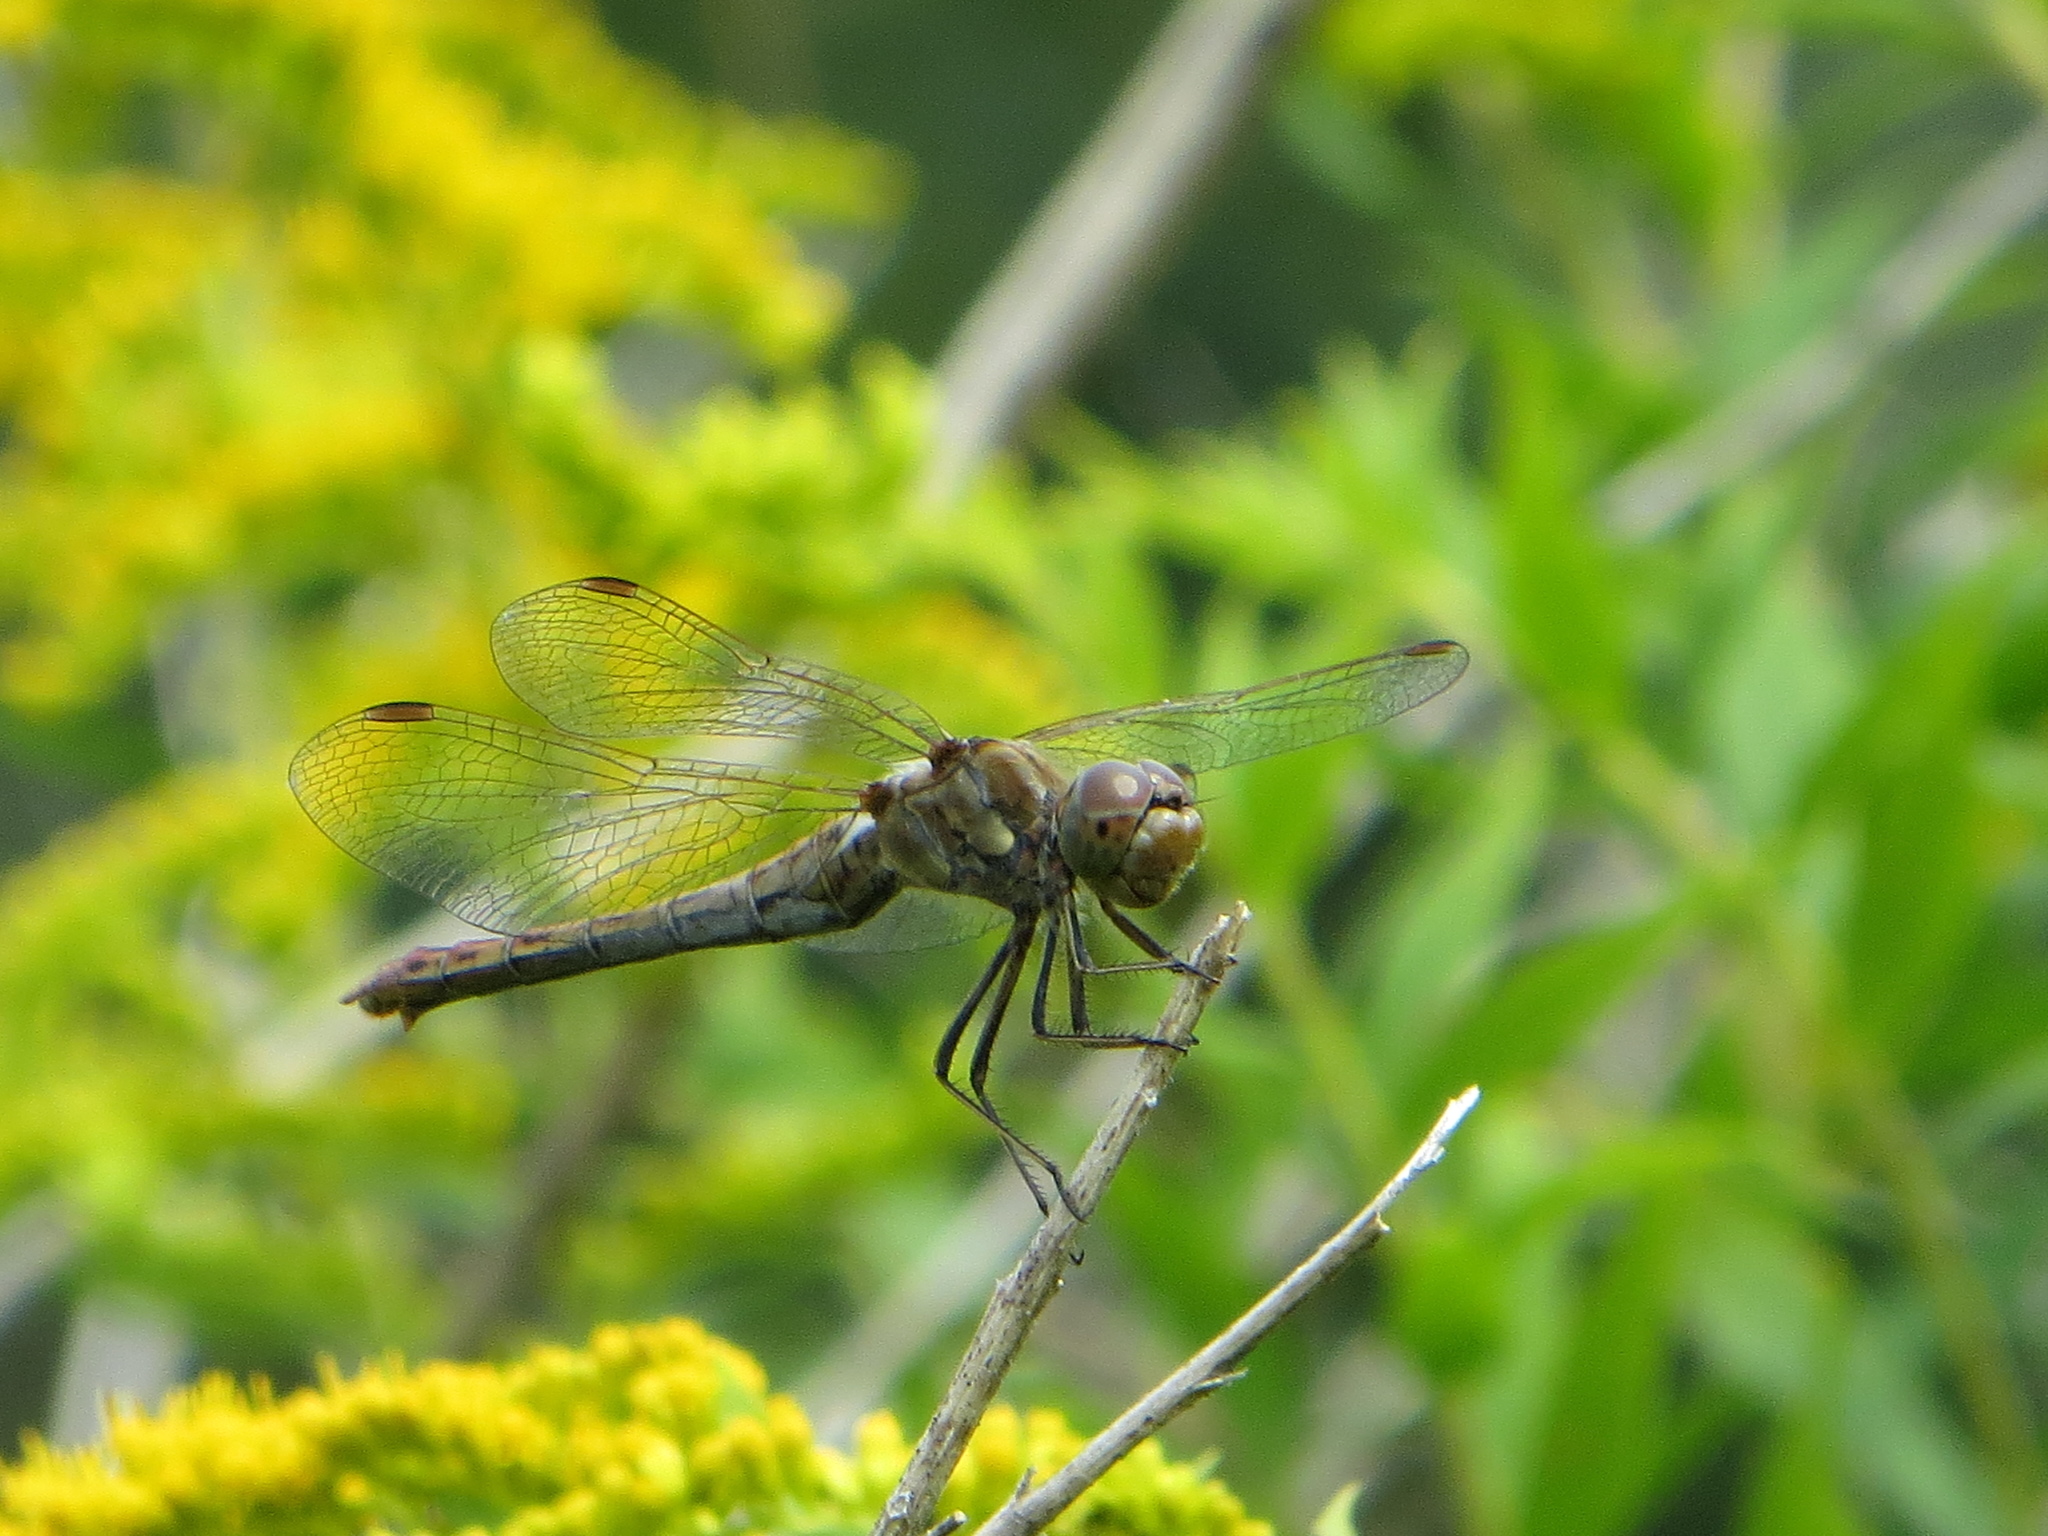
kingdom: Animalia
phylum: Arthropoda
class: Insecta
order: Odonata
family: Libellulidae
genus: Sympetrum
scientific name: Sympetrum striolatum
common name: Common darter
